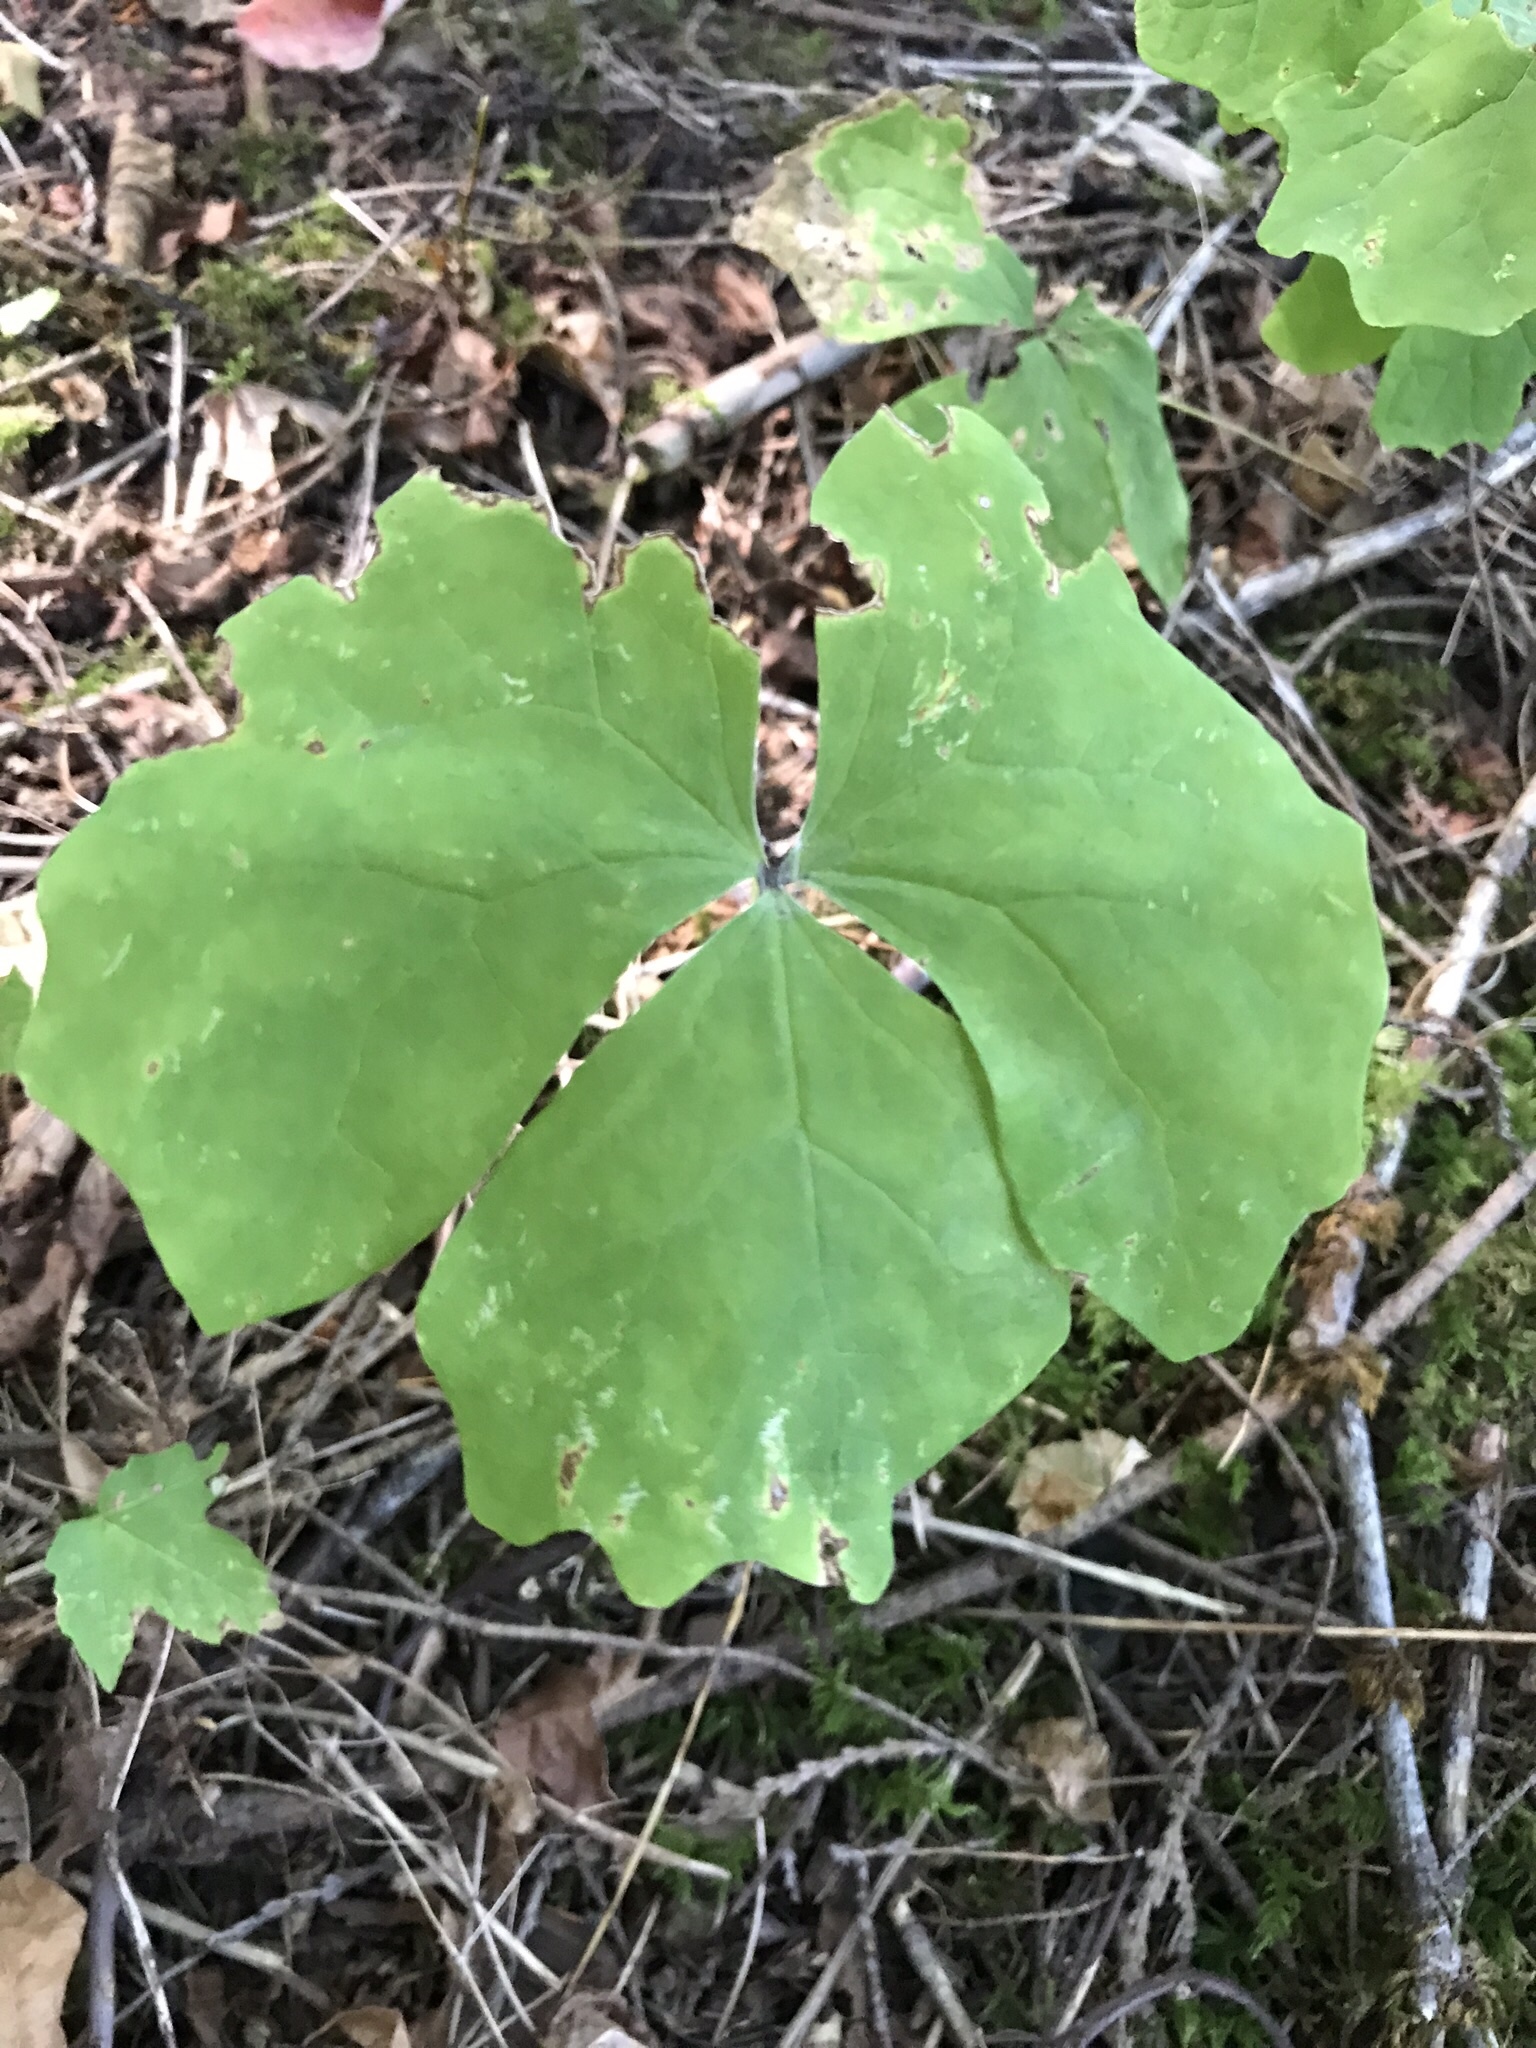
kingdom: Plantae
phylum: Tracheophyta
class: Magnoliopsida
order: Ranunculales
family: Berberidaceae
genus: Achlys
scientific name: Achlys triphylla
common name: Vanilla-leaf
